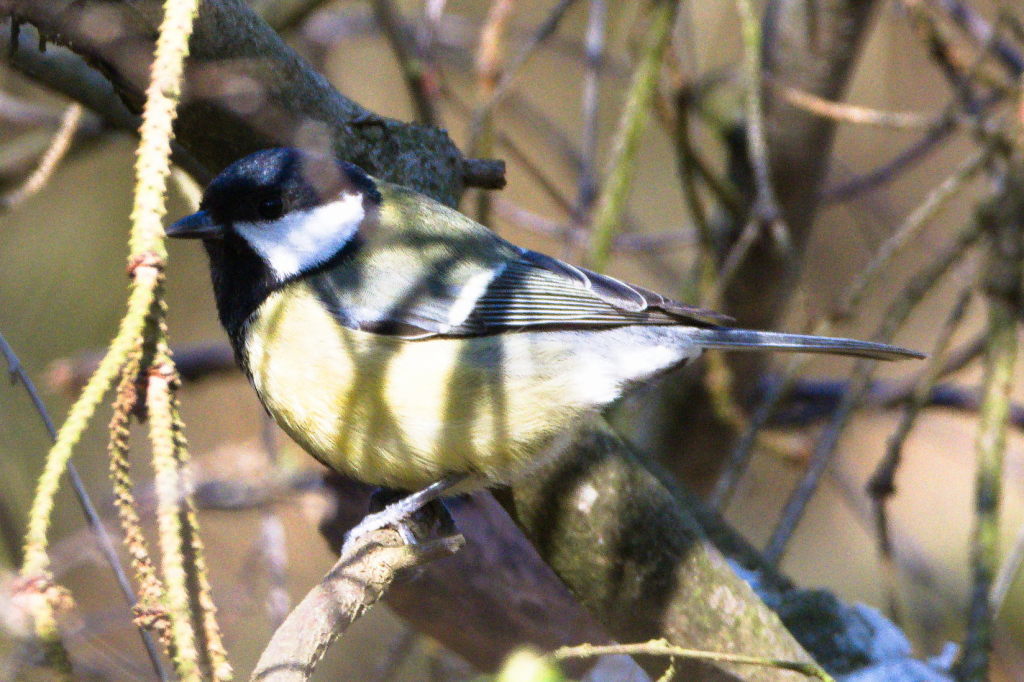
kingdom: Animalia
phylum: Chordata
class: Aves
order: Passeriformes
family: Paridae
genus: Parus
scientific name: Parus major
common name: Great tit
